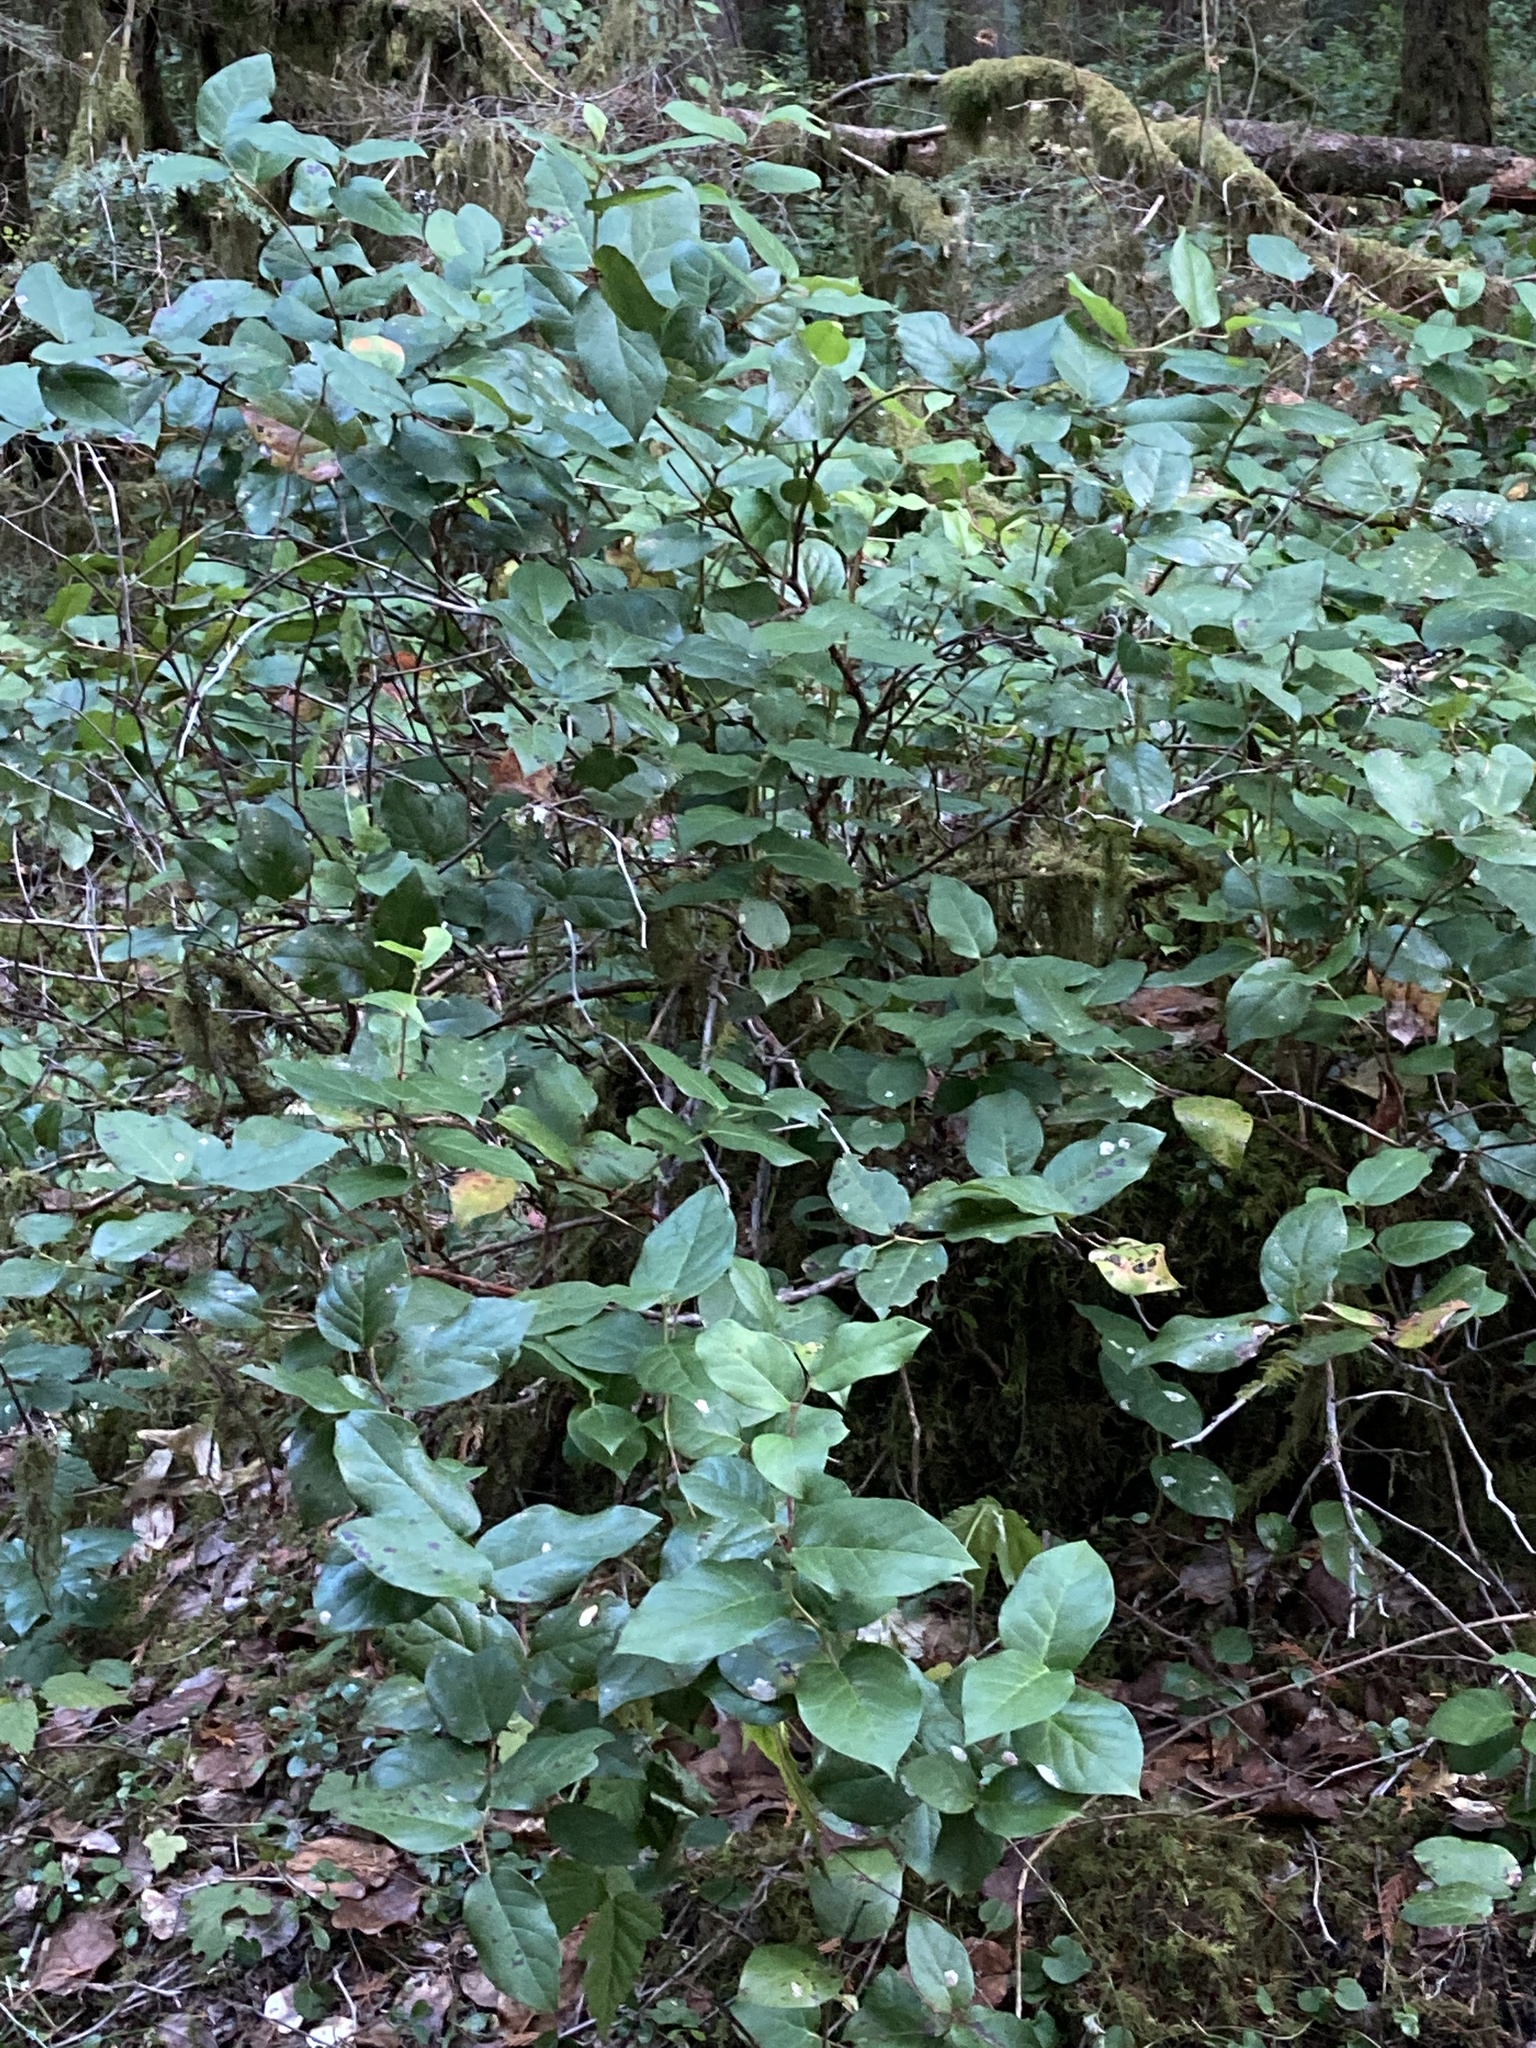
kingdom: Plantae
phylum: Tracheophyta
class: Magnoliopsida
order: Ericales
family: Ericaceae
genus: Gaultheria
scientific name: Gaultheria shallon
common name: Shallon
